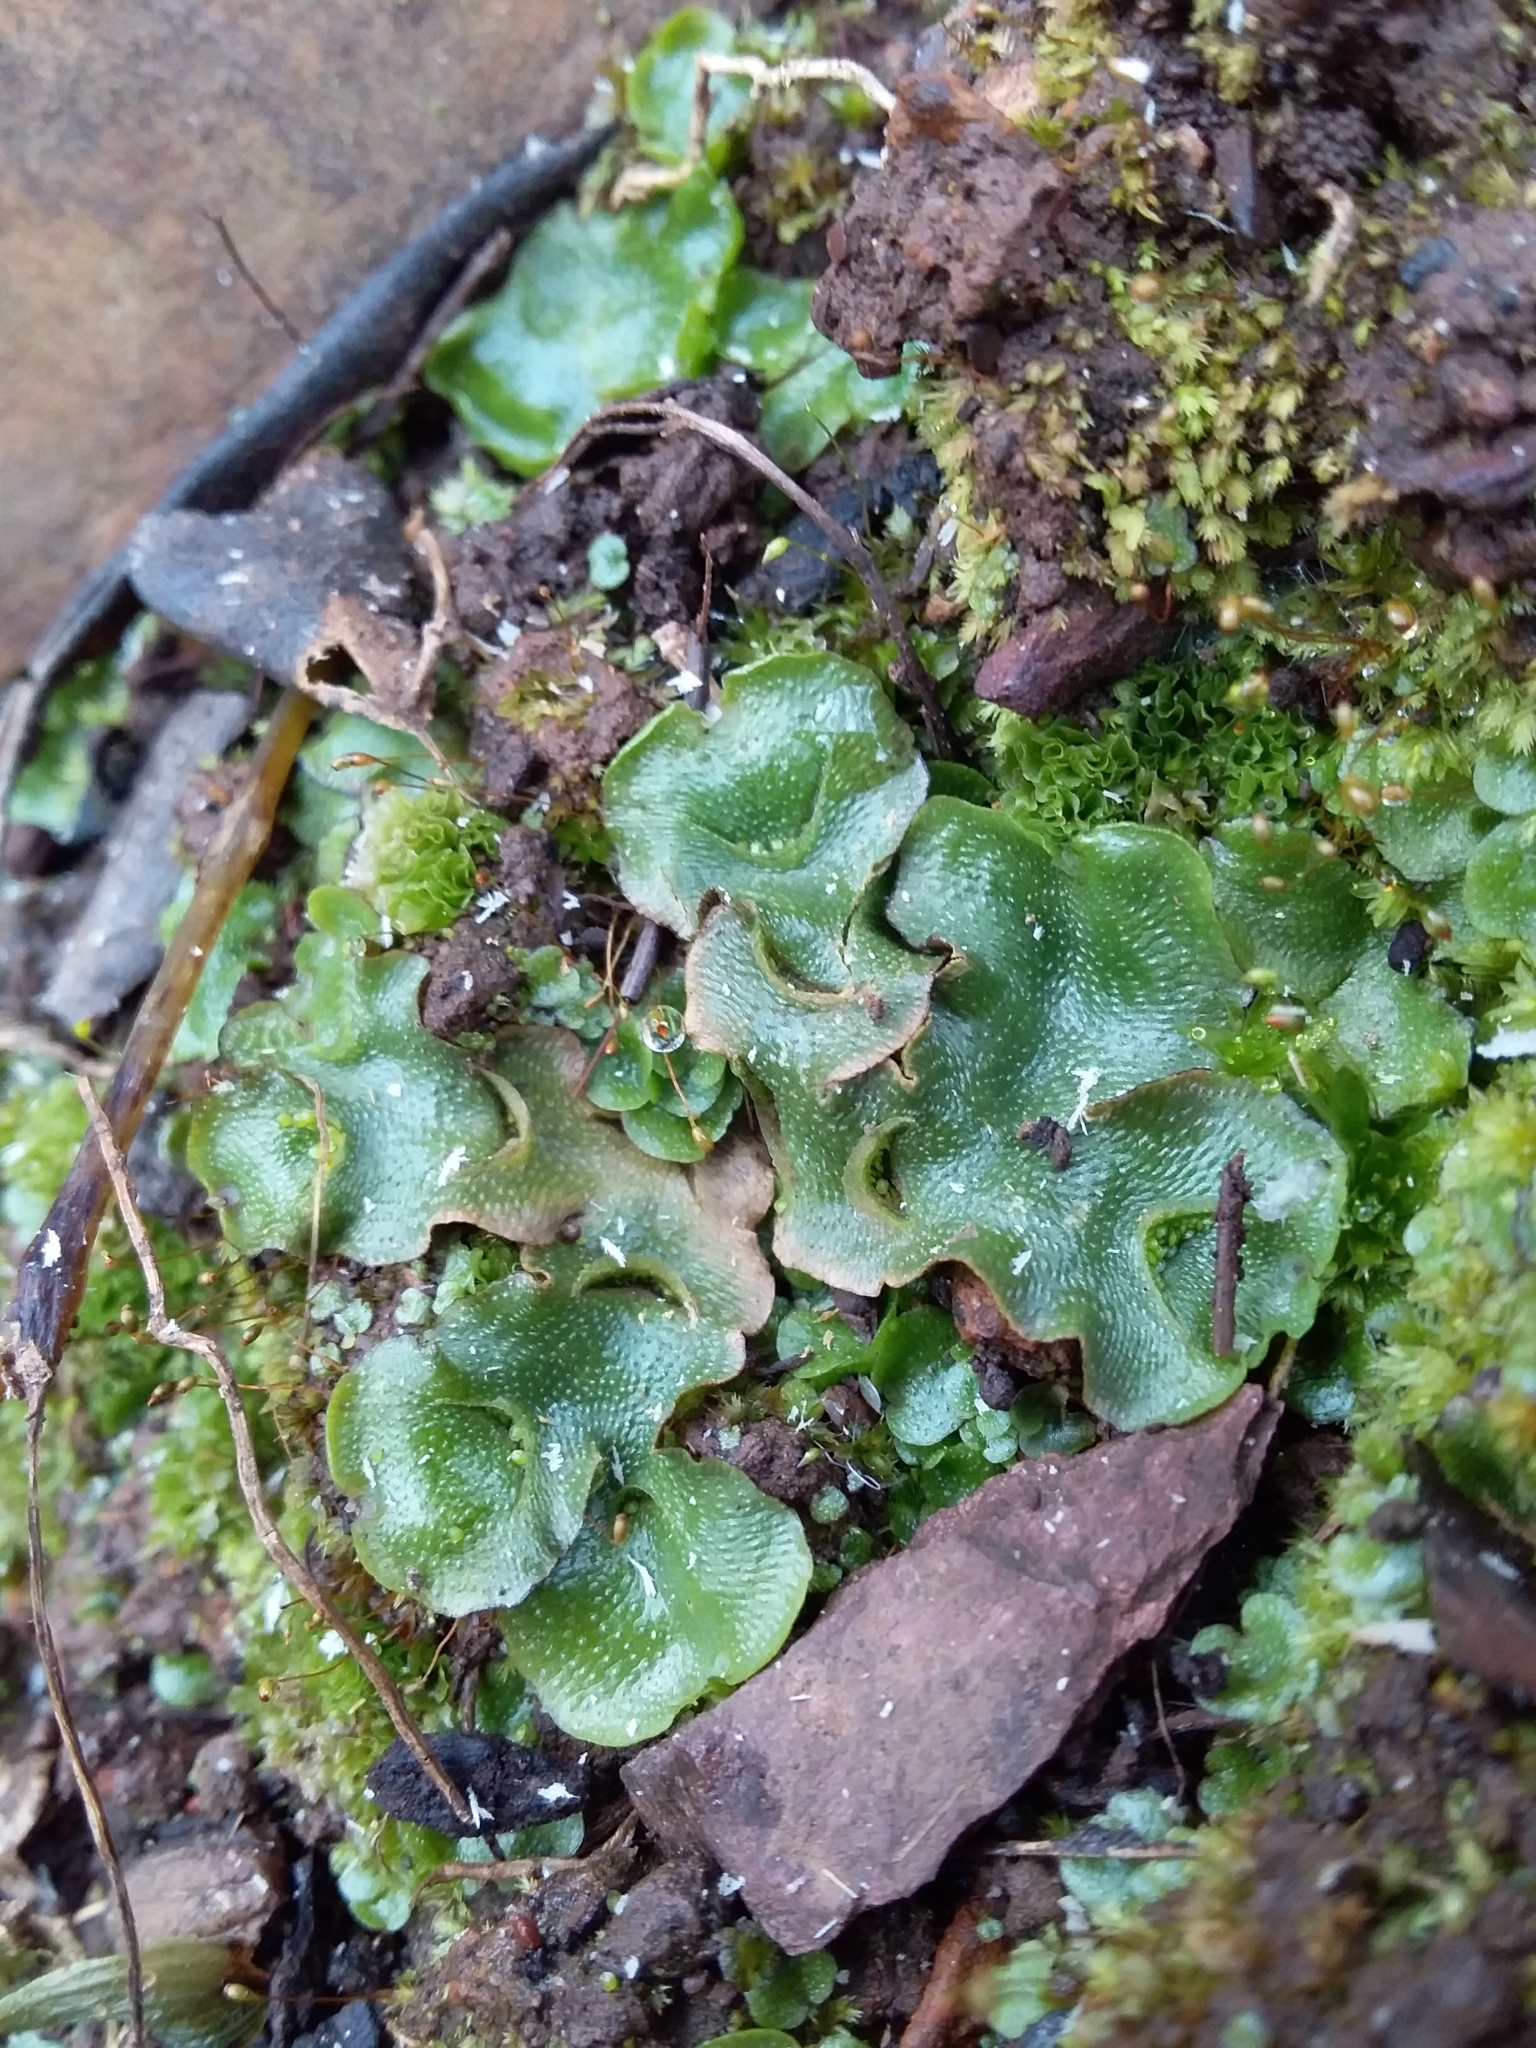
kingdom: Plantae
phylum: Marchantiophyta
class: Marchantiopsida
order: Lunulariales
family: Lunulariaceae
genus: Lunularia
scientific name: Lunularia cruciata
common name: Crescent-cup liverwort
